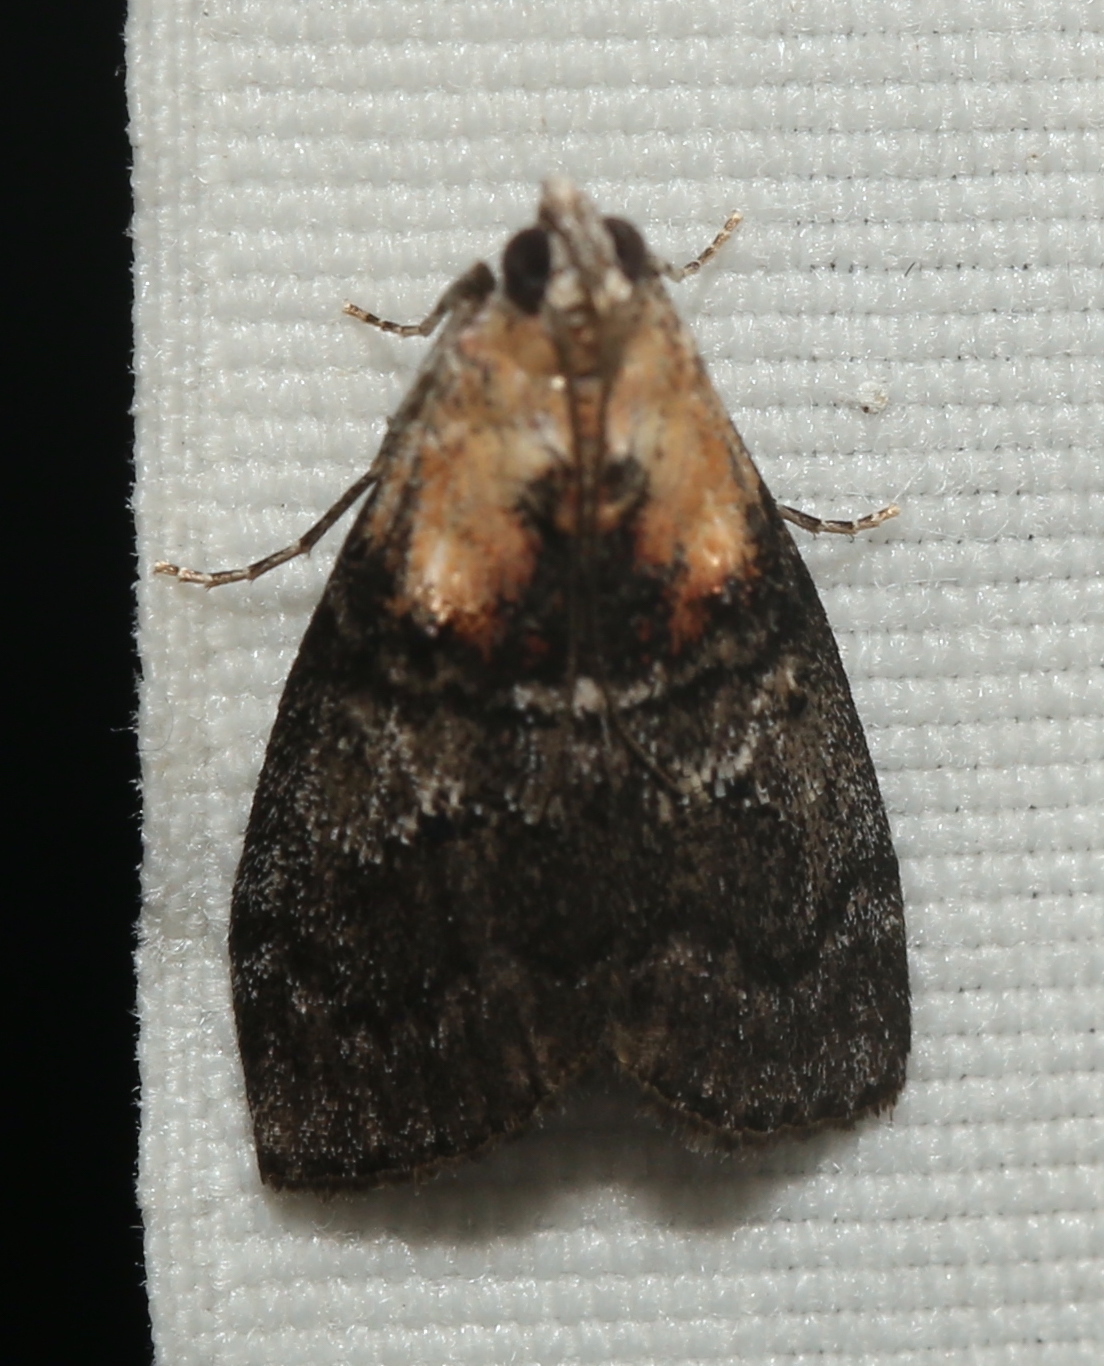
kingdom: Animalia
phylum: Arthropoda
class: Insecta
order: Lepidoptera
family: Pyralidae
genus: Pococera
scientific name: Pococera expandens
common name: Striped oak webworm moth
